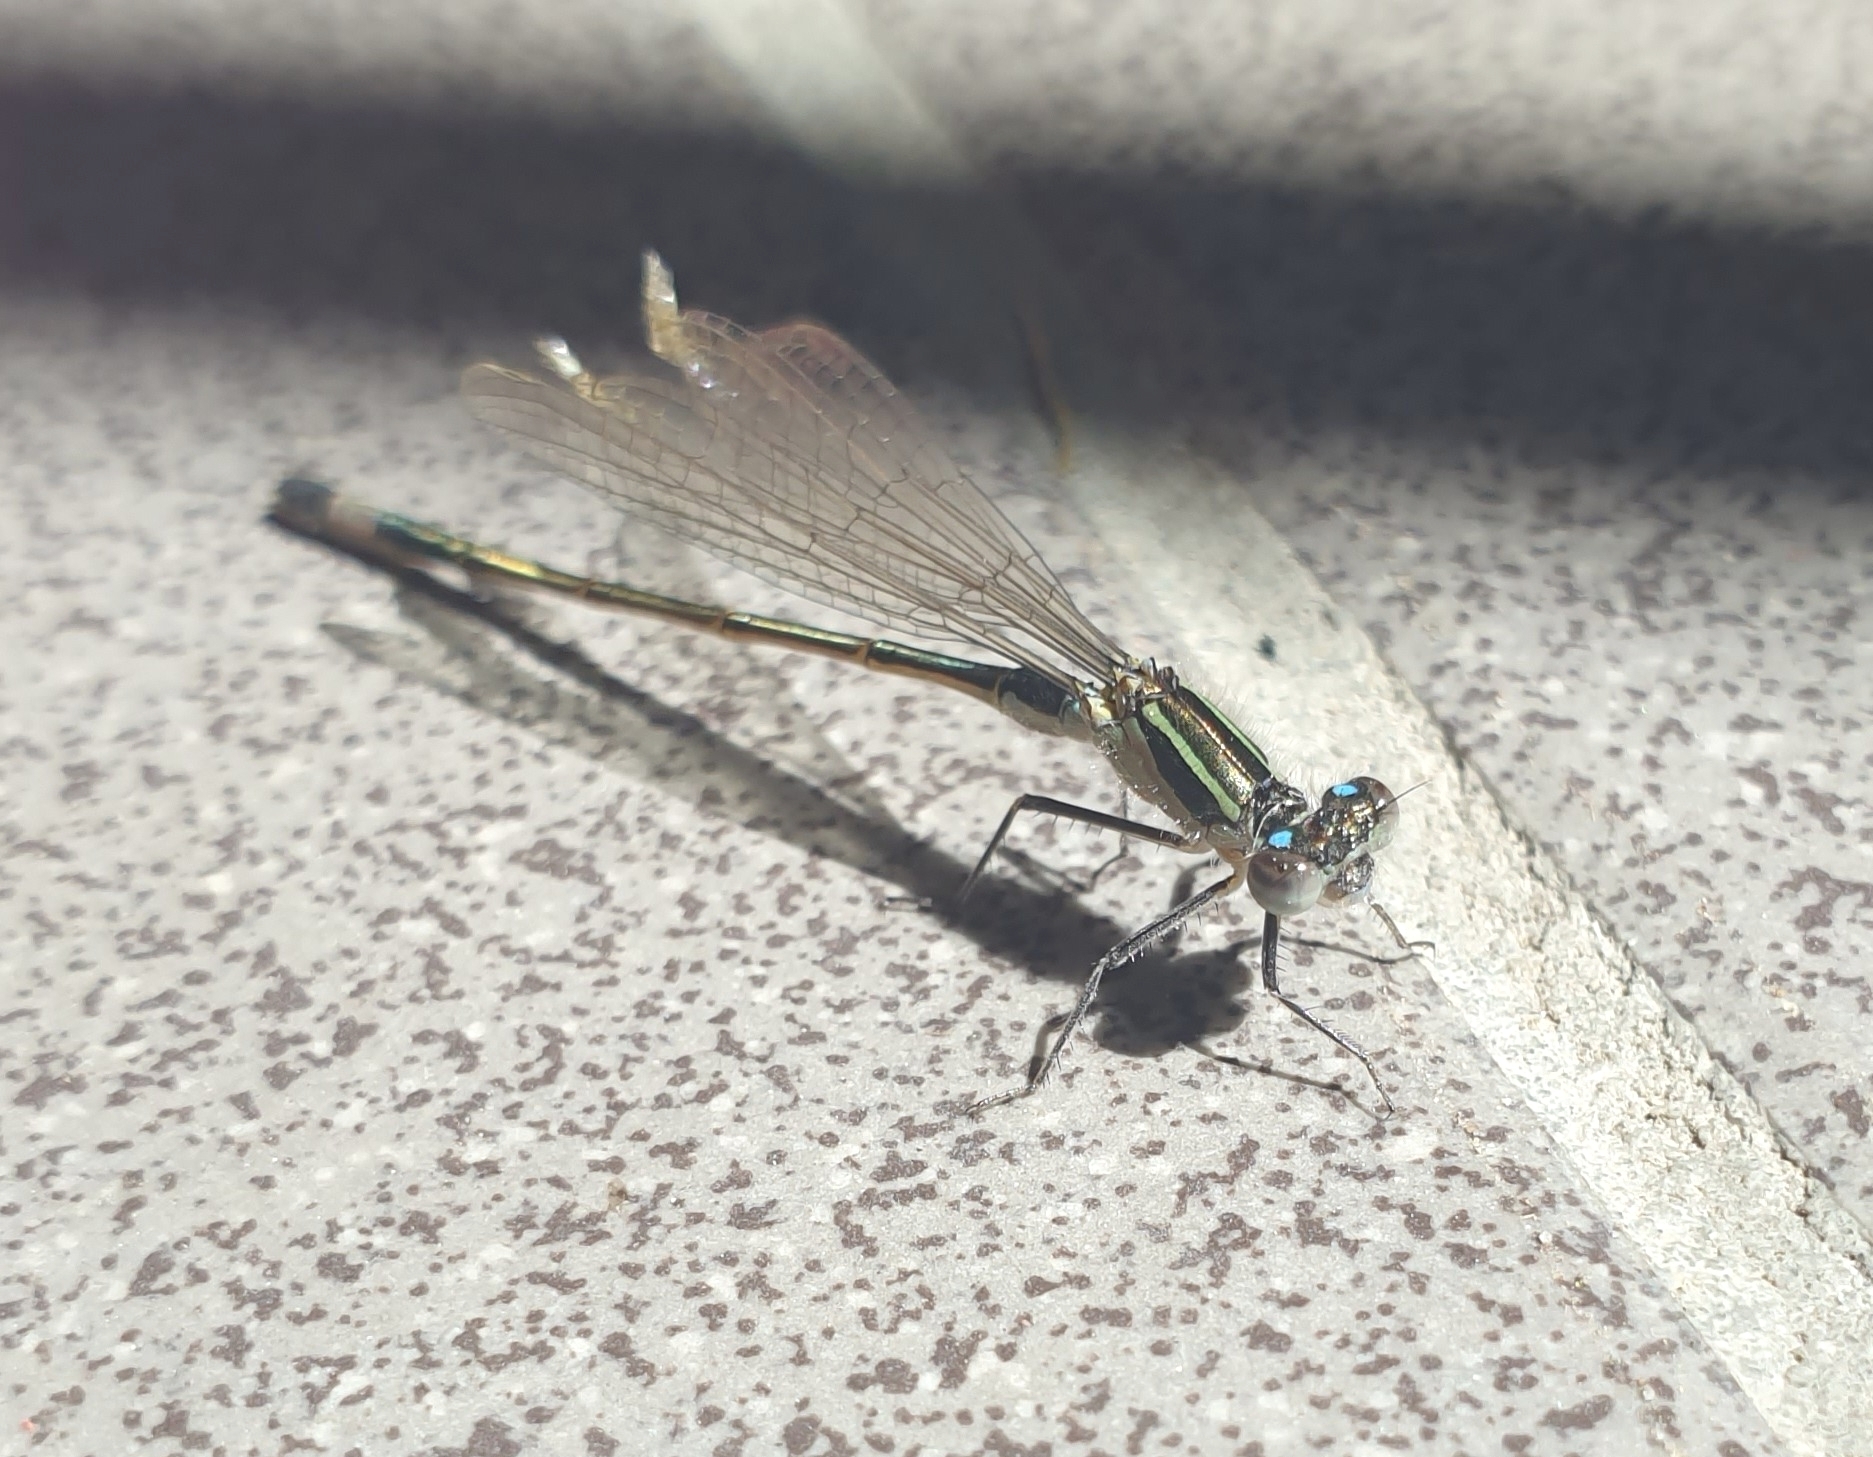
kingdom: Animalia
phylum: Arthropoda
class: Insecta
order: Odonata
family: Coenagrionidae
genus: Ischnura
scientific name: Ischnura elegans
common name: Blue-tailed damselfly
